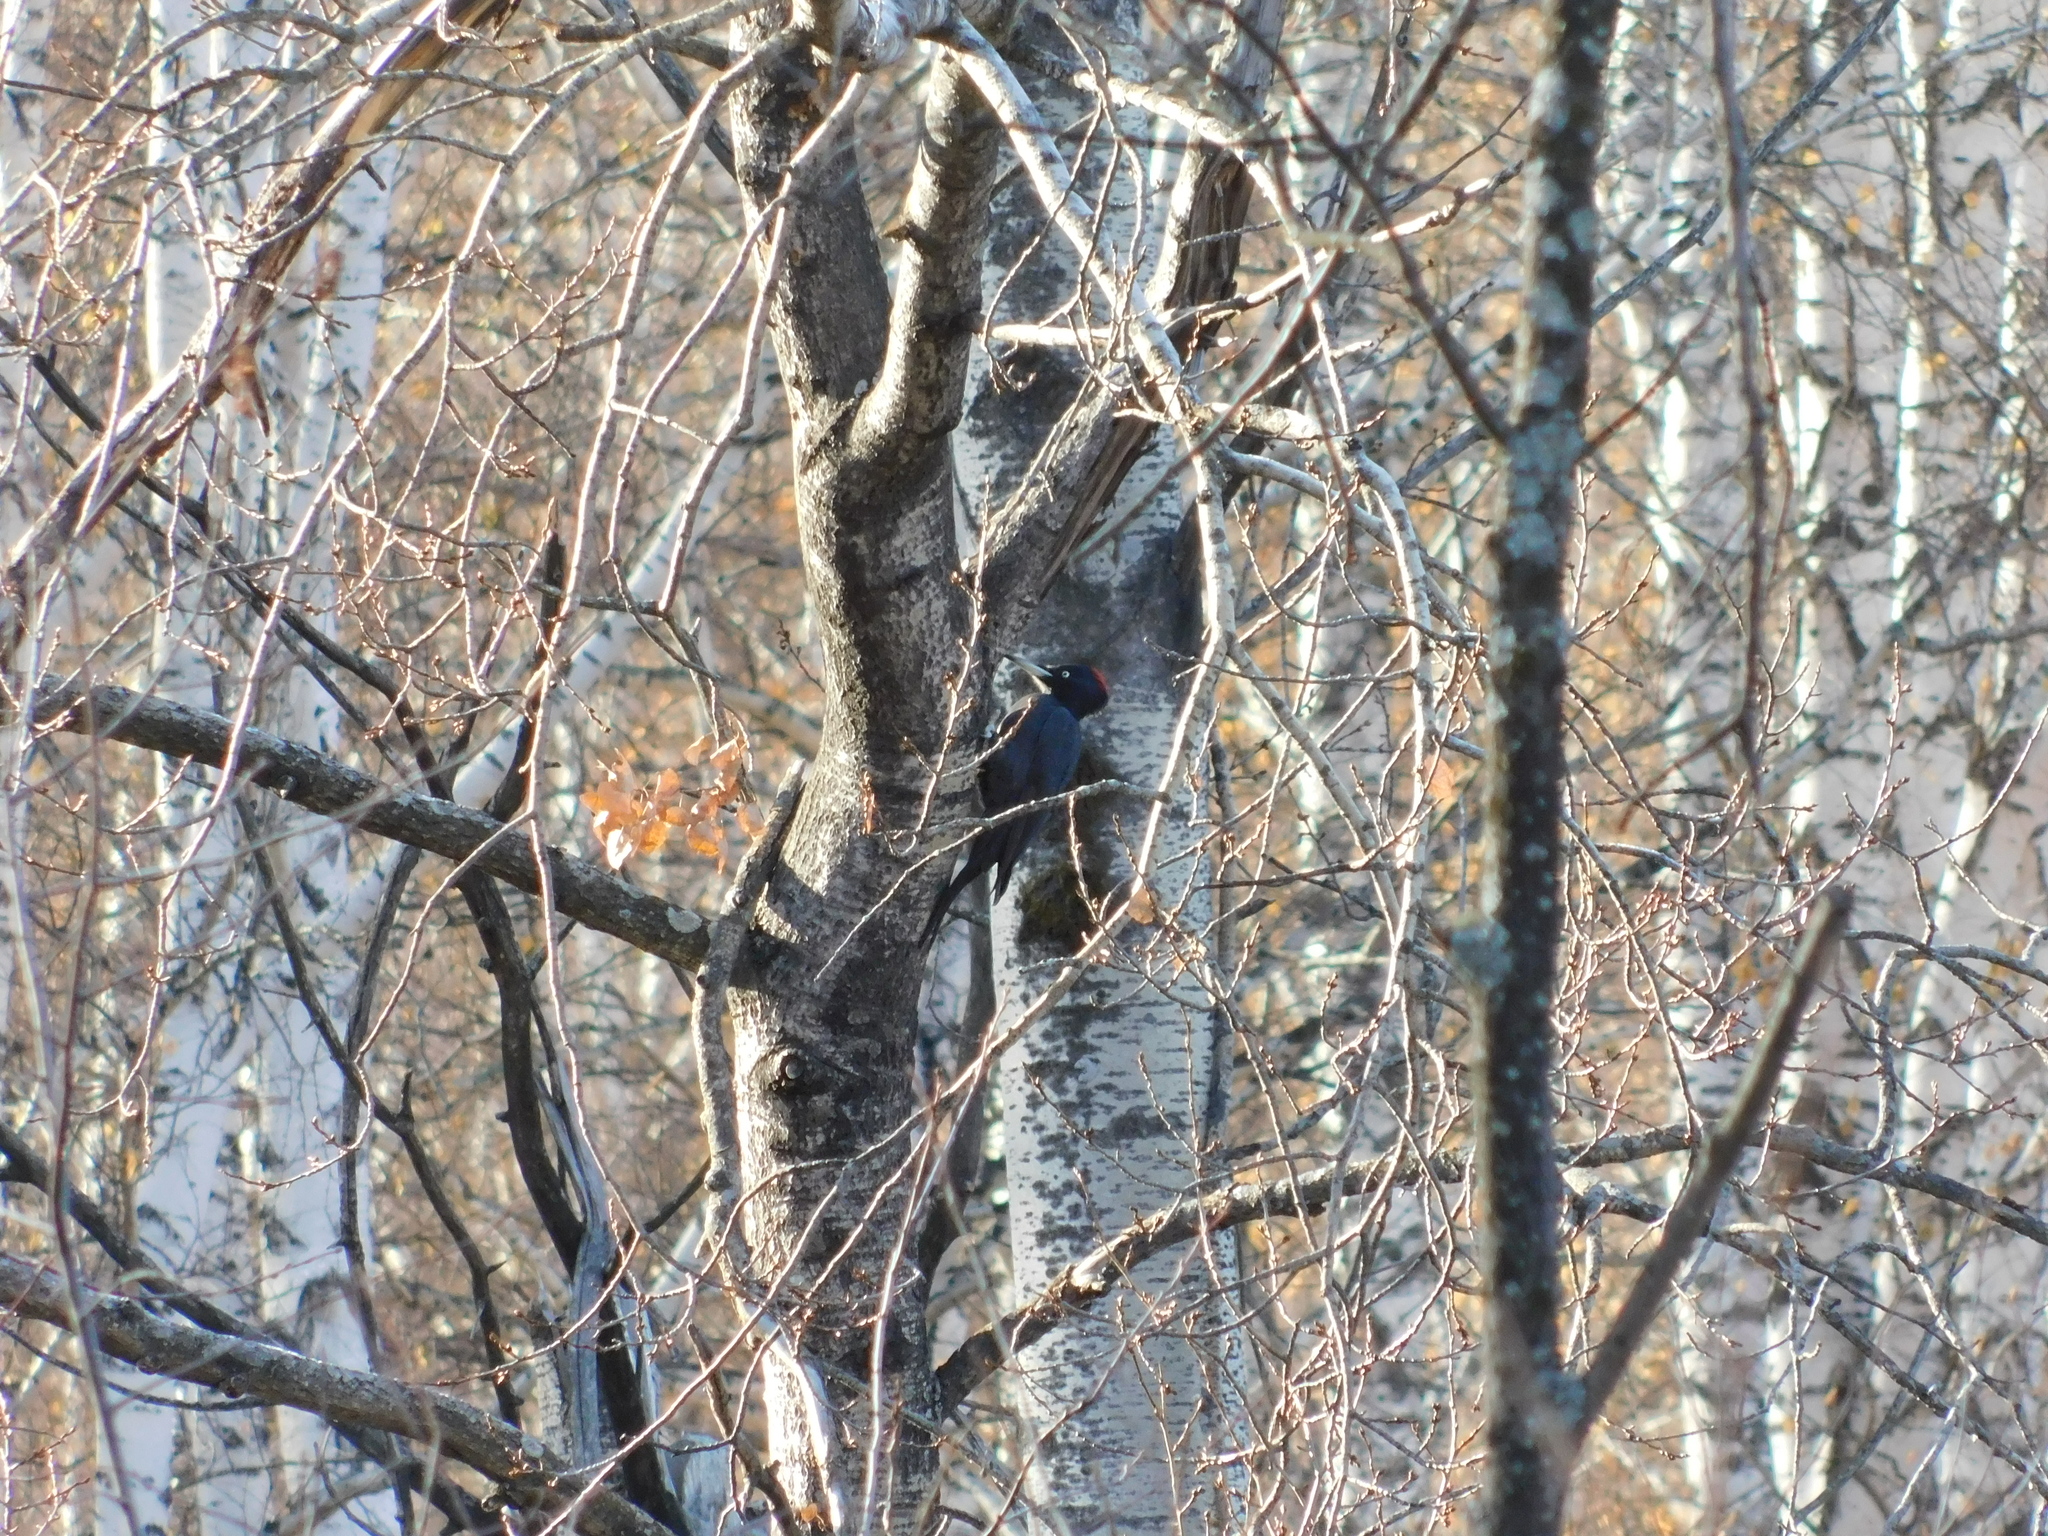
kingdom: Animalia
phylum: Chordata
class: Aves
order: Piciformes
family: Picidae
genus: Dryocopus
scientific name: Dryocopus martius
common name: Black woodpecker
